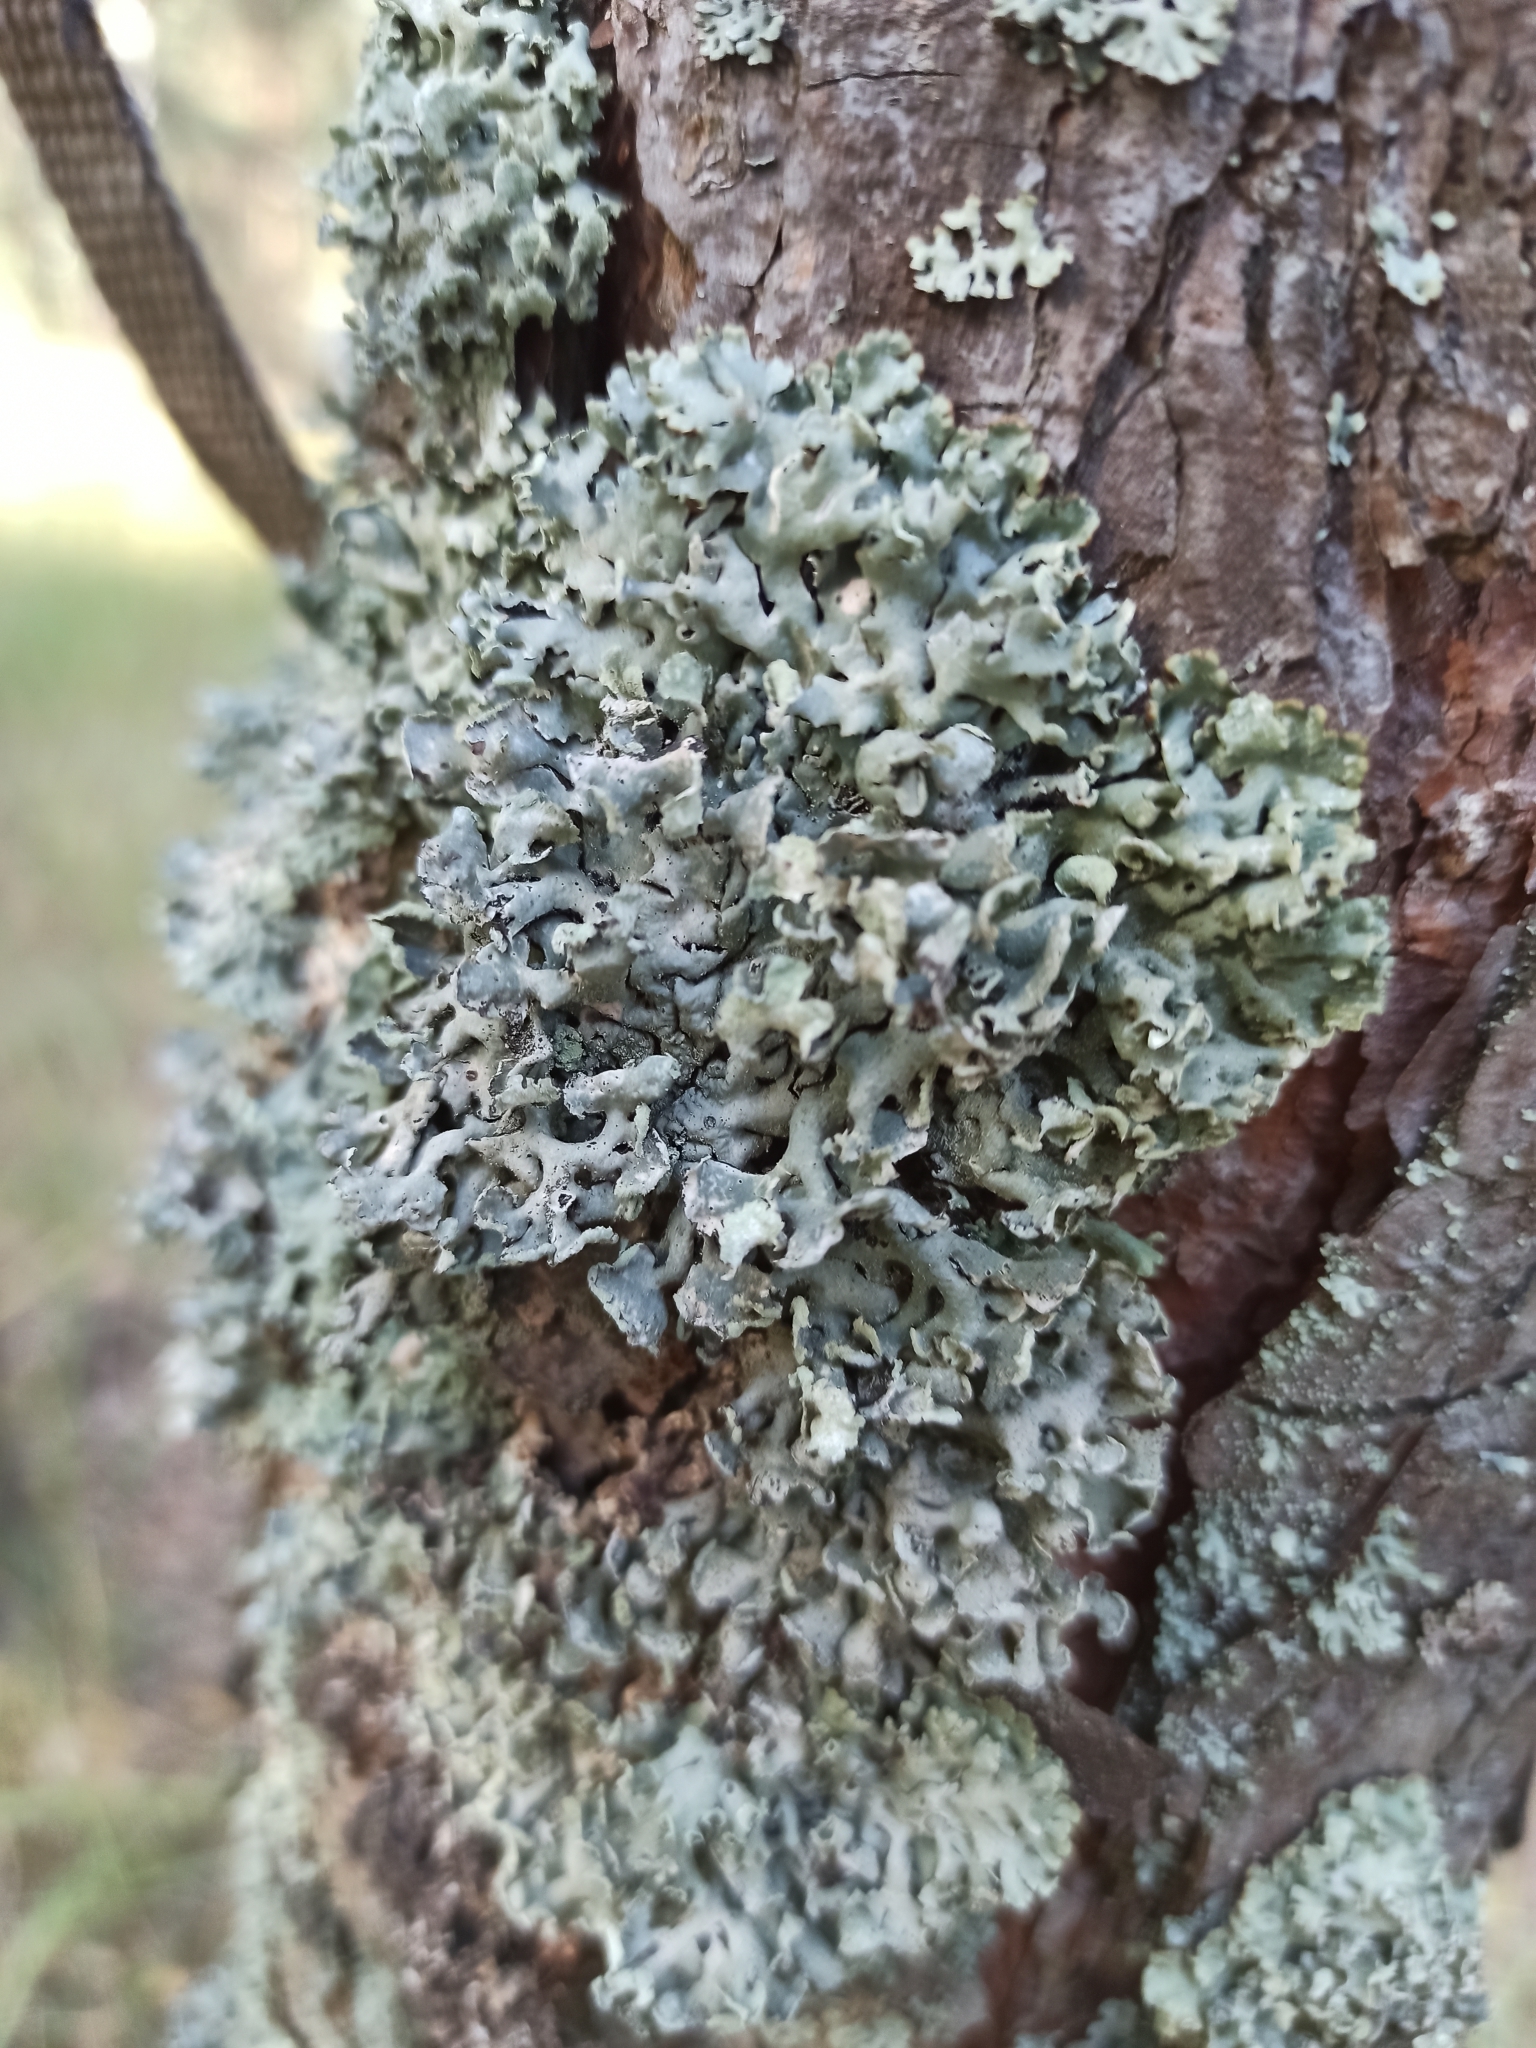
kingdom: Fungi
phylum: Ascomycota
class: Lecanoromycetes
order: Lecanorales
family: Parmeliaceae
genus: Hypogymnia
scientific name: Hypogymnia physodes
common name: Dark crottle
